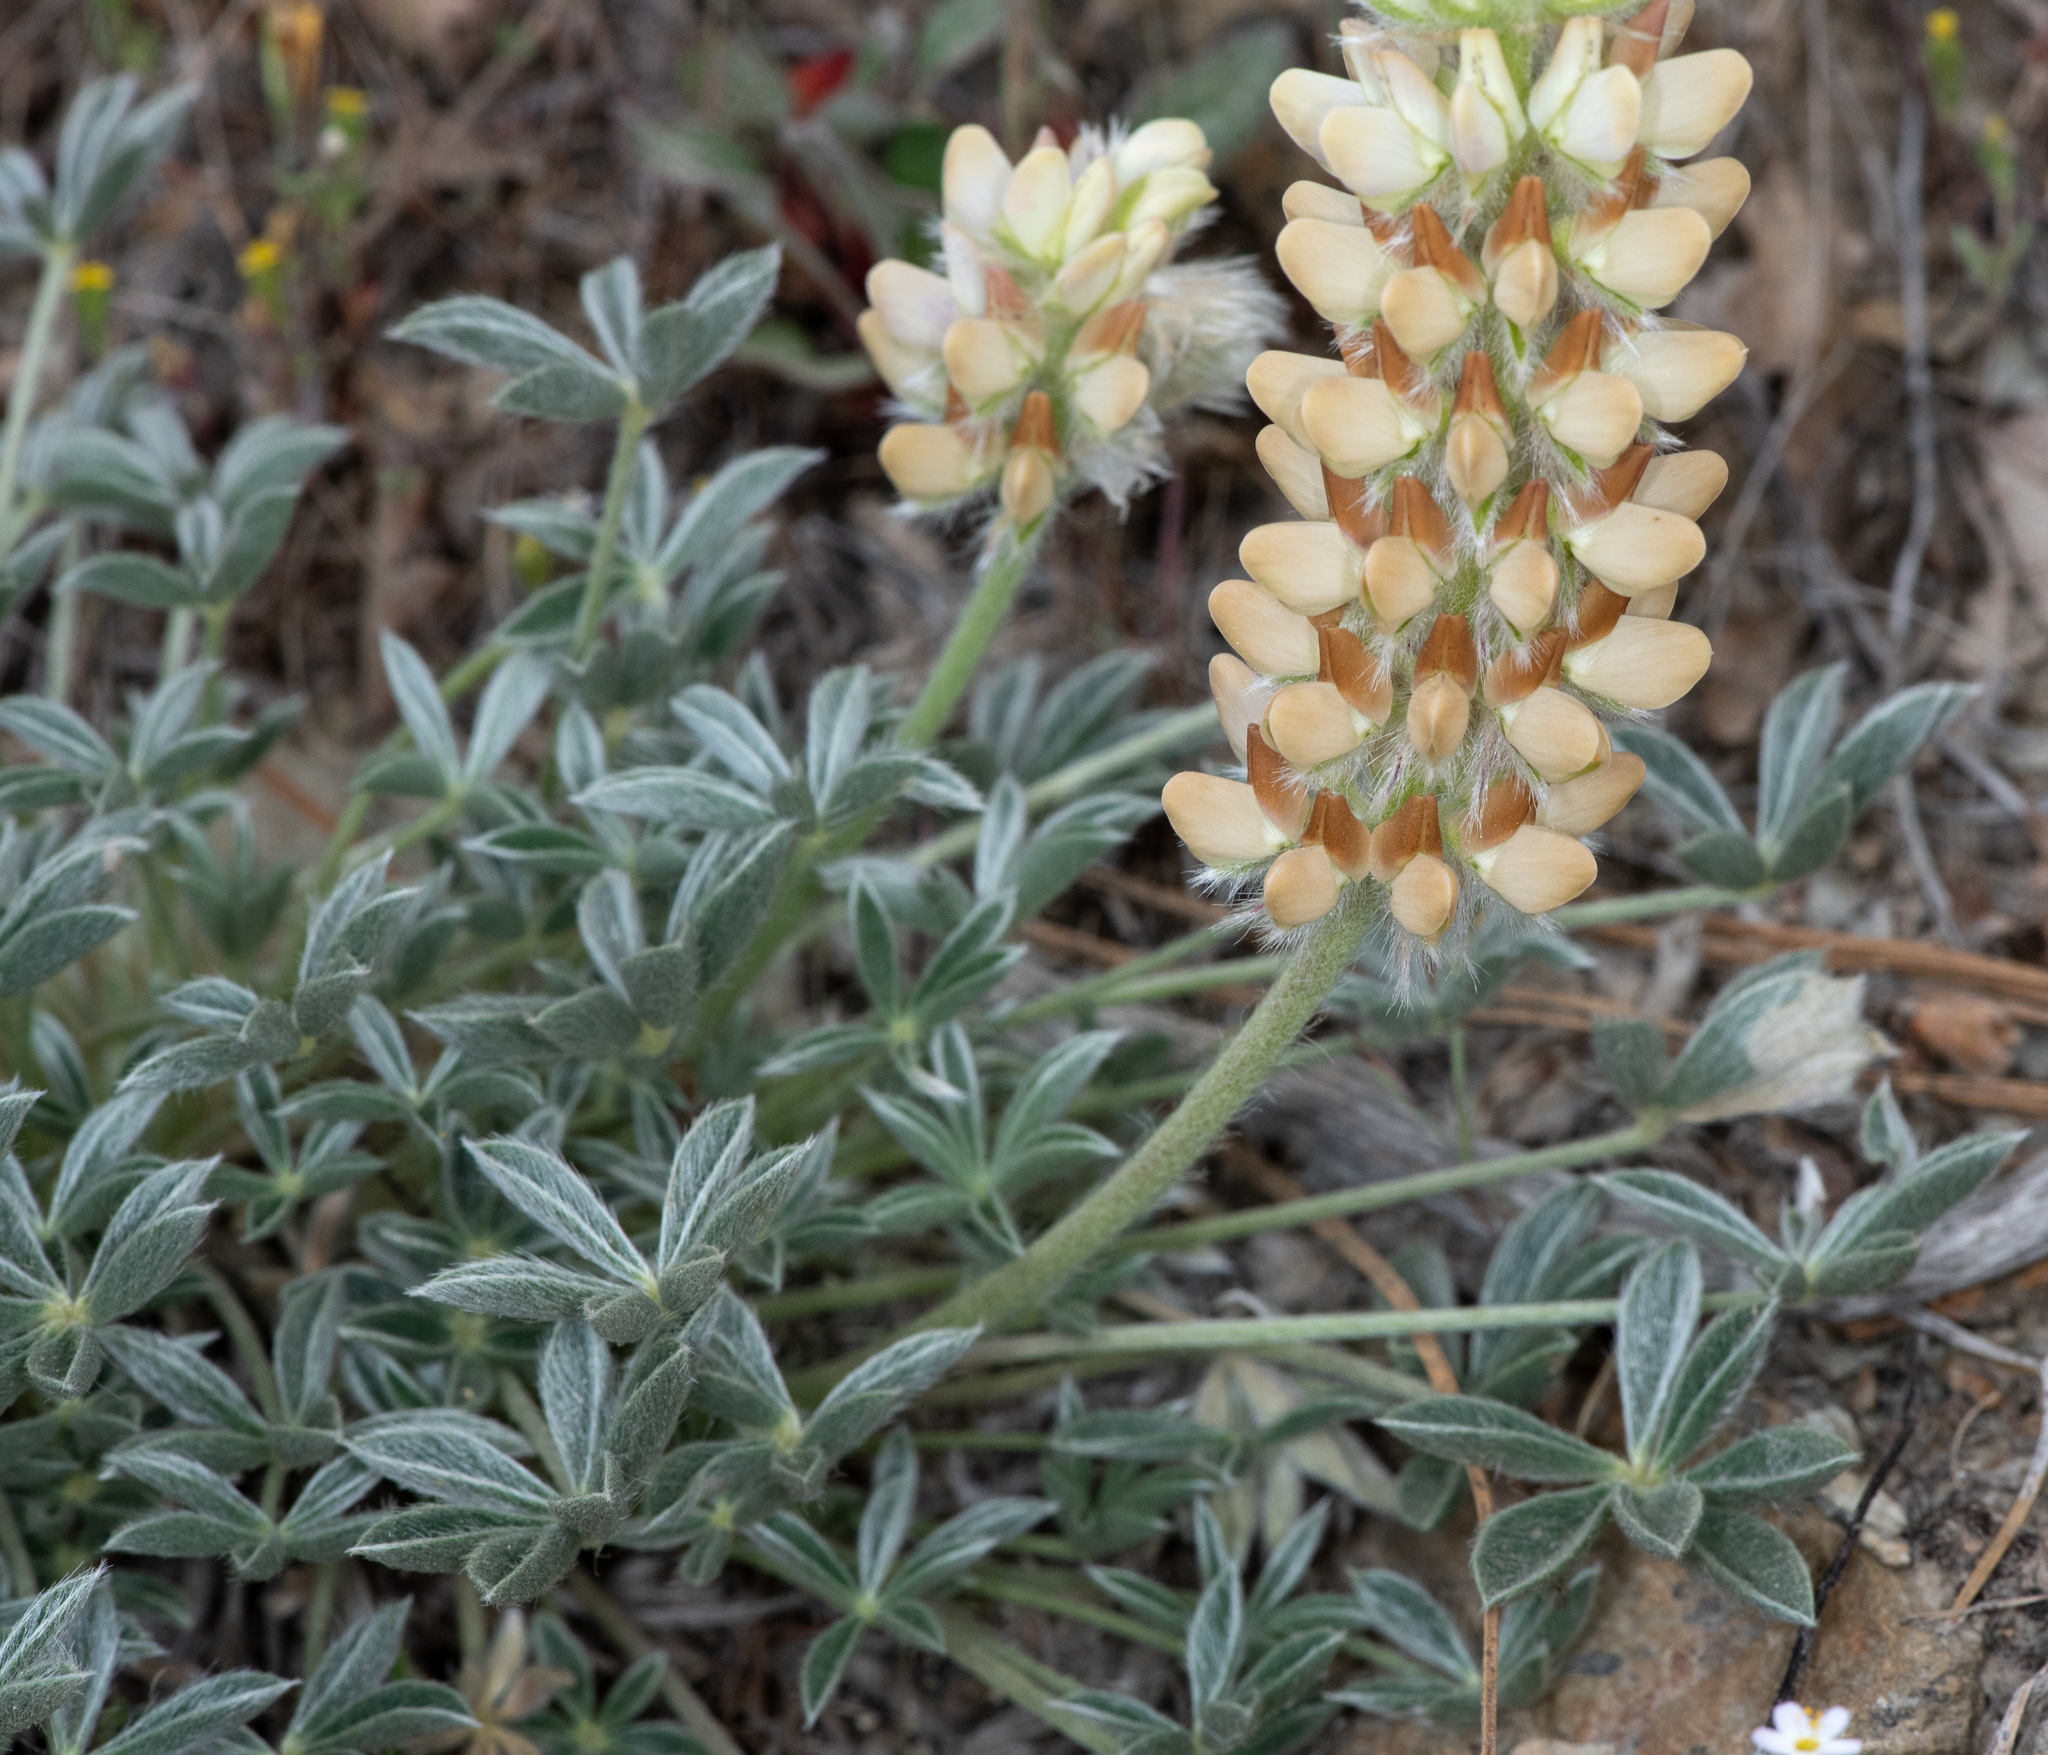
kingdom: Plantae
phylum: Tracheophyta
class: Magnoliopsida
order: Fabales
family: Fabaceae
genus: Lupinus
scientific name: Lupinus sellulus
